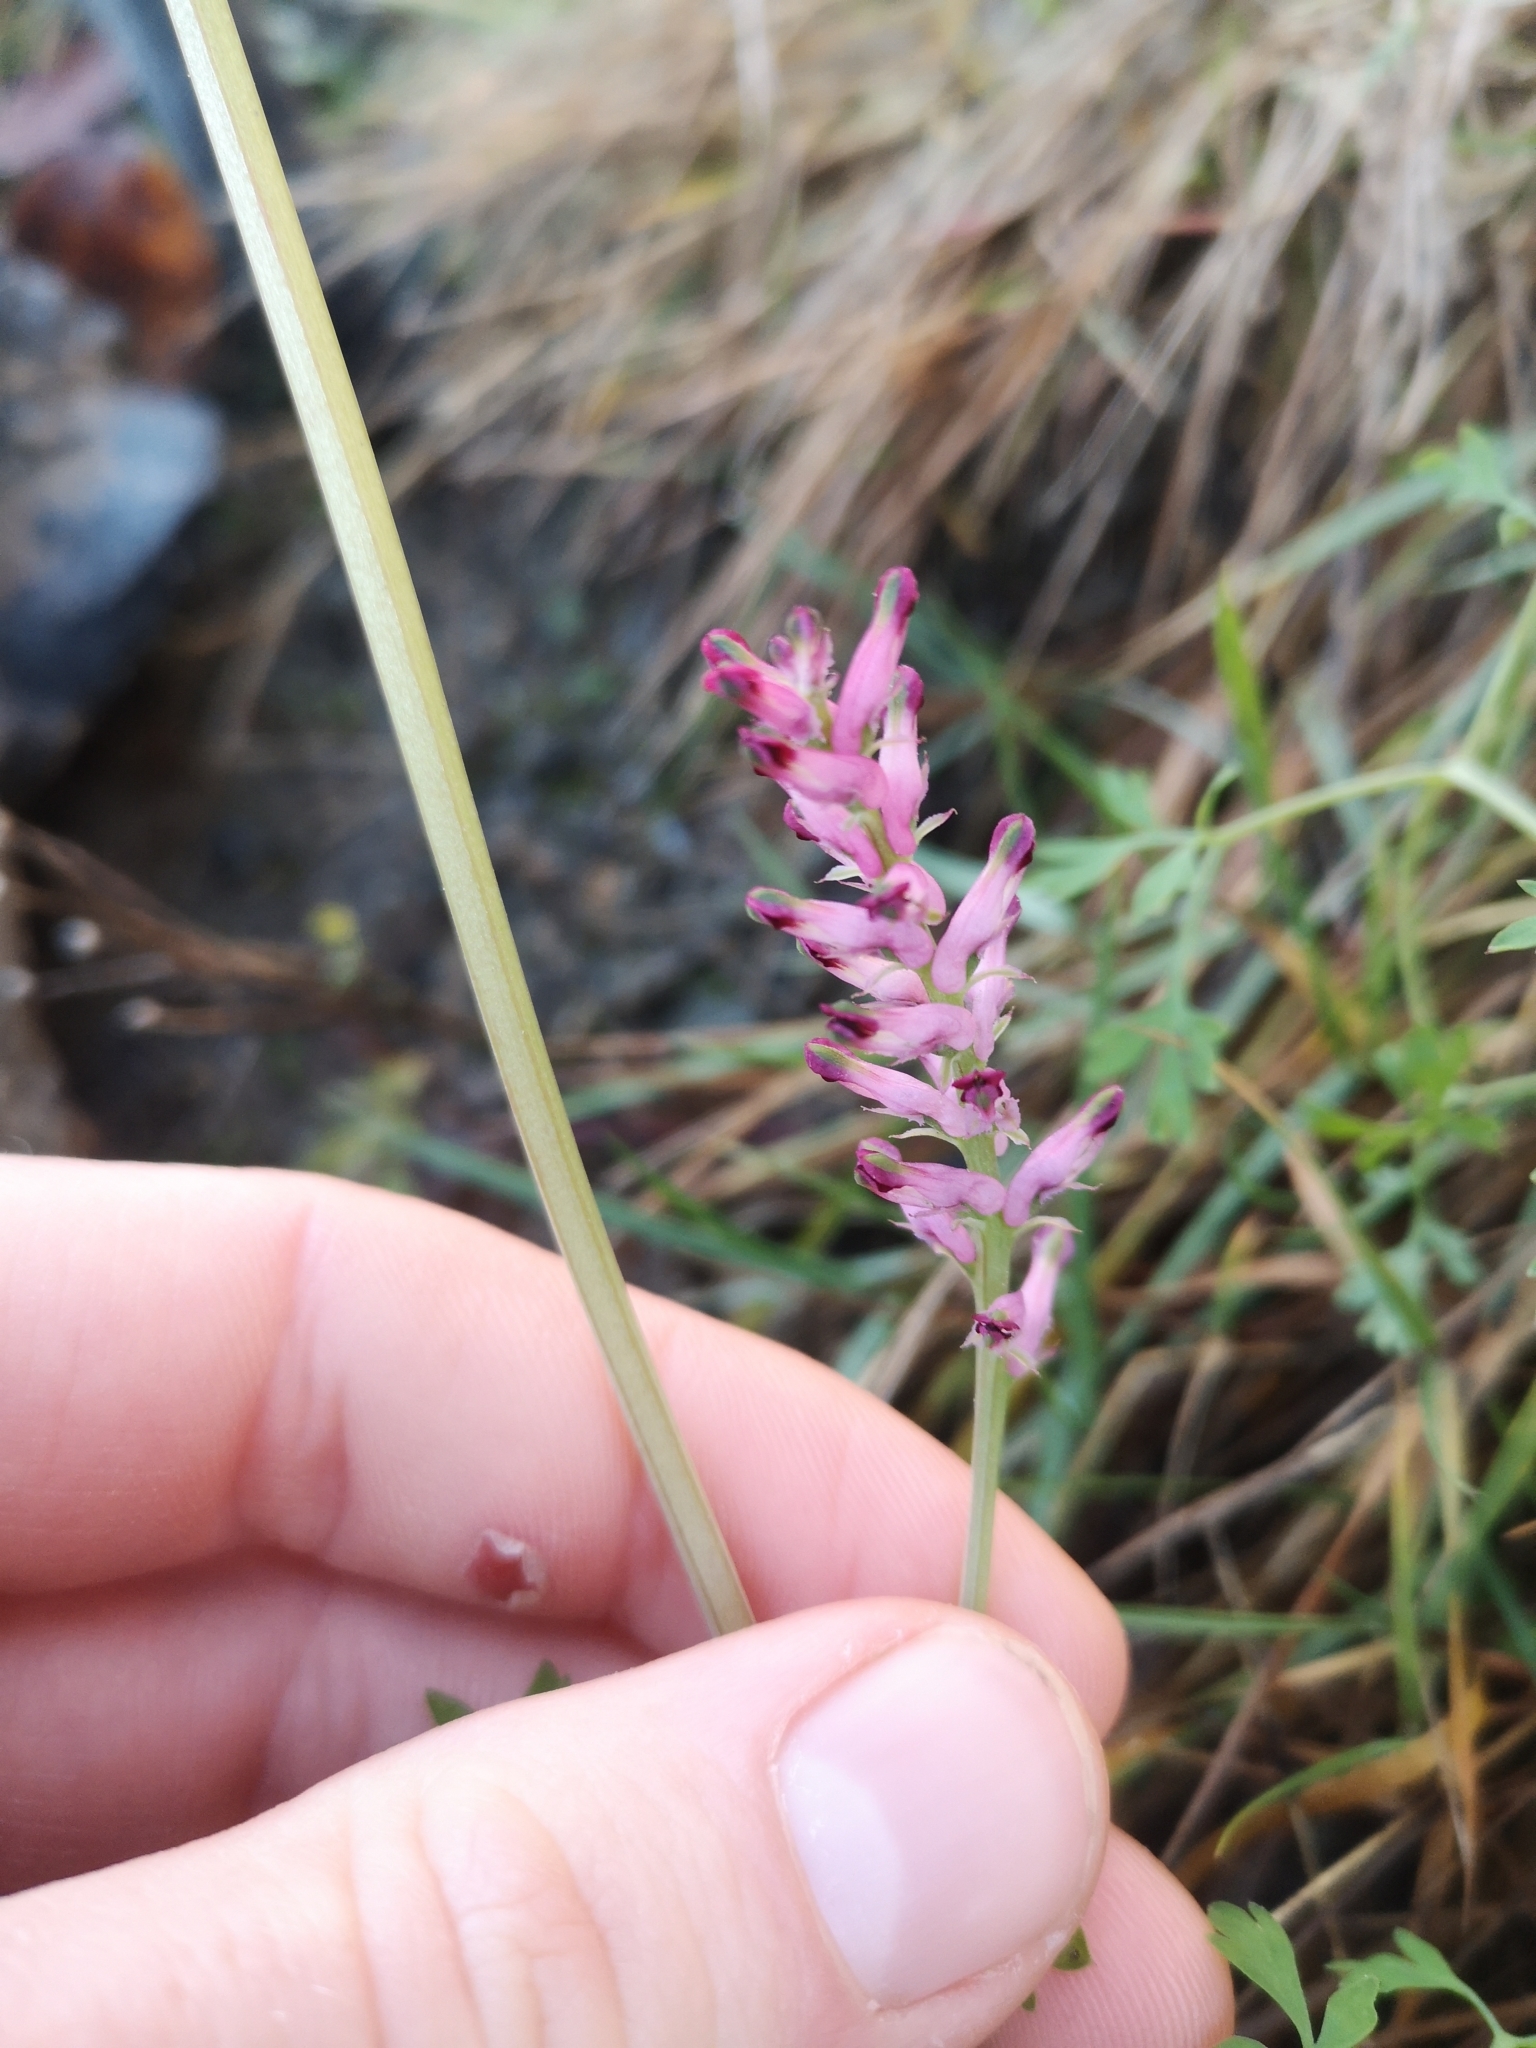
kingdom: Plantae
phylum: Tracheophyta
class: Magnoliopsida
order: Ranunculales
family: Papaveraceae
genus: Fumaria
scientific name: Fumaria officinalis
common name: Common fumitory
